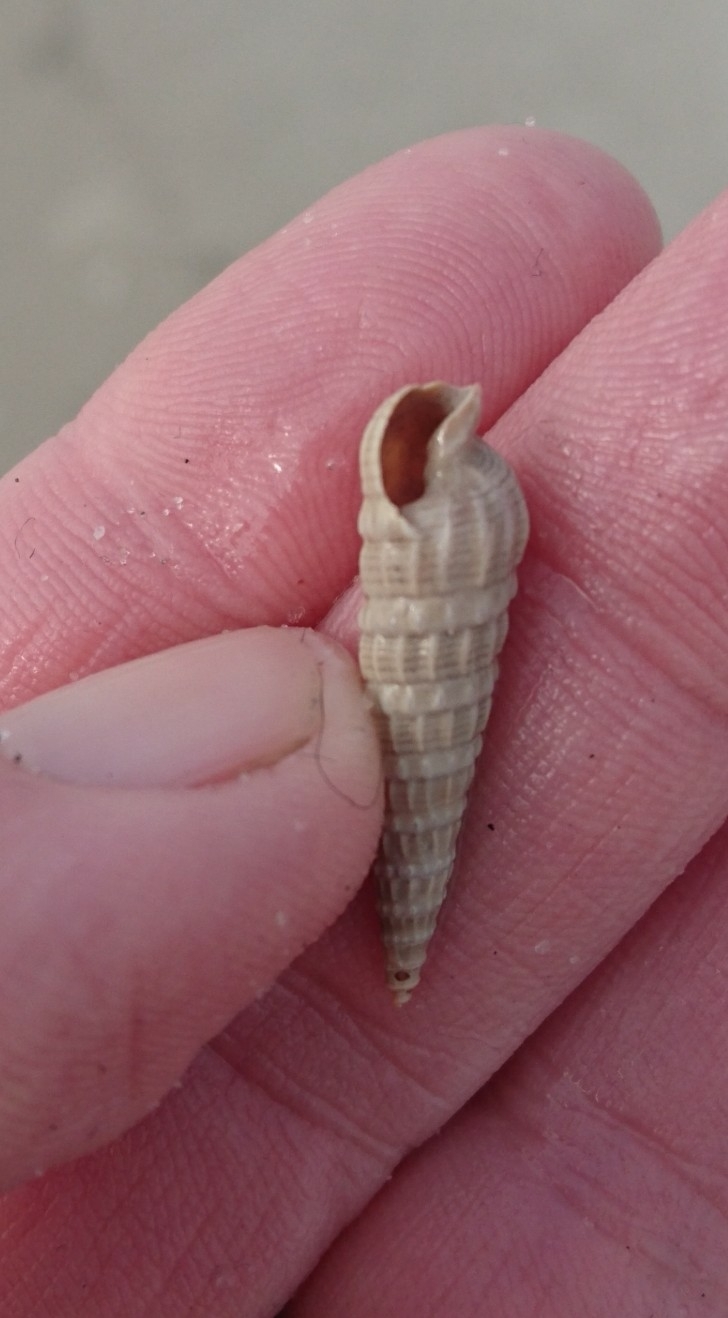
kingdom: Animalia
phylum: Mollusca
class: Gastropoda
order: Neogastropoda
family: Terebridae
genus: Neoterebra
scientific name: Neoterebra dislocata
